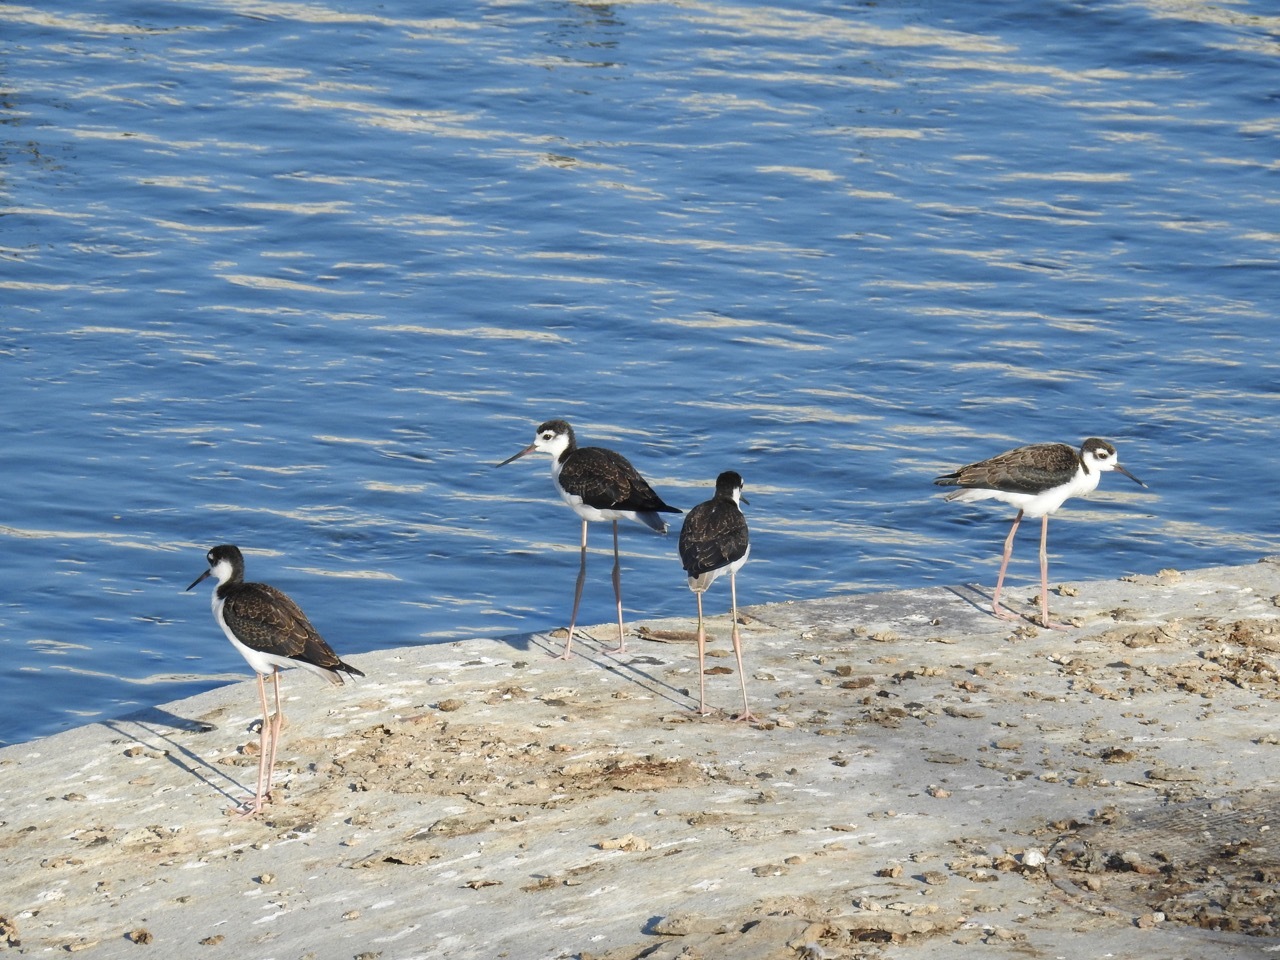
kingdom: Animalia
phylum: Chordata
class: Aves
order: Charadriiformes
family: Recurvirostridae
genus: Himantopus
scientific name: Himantopus mexicanus
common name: Black-necked stilt
